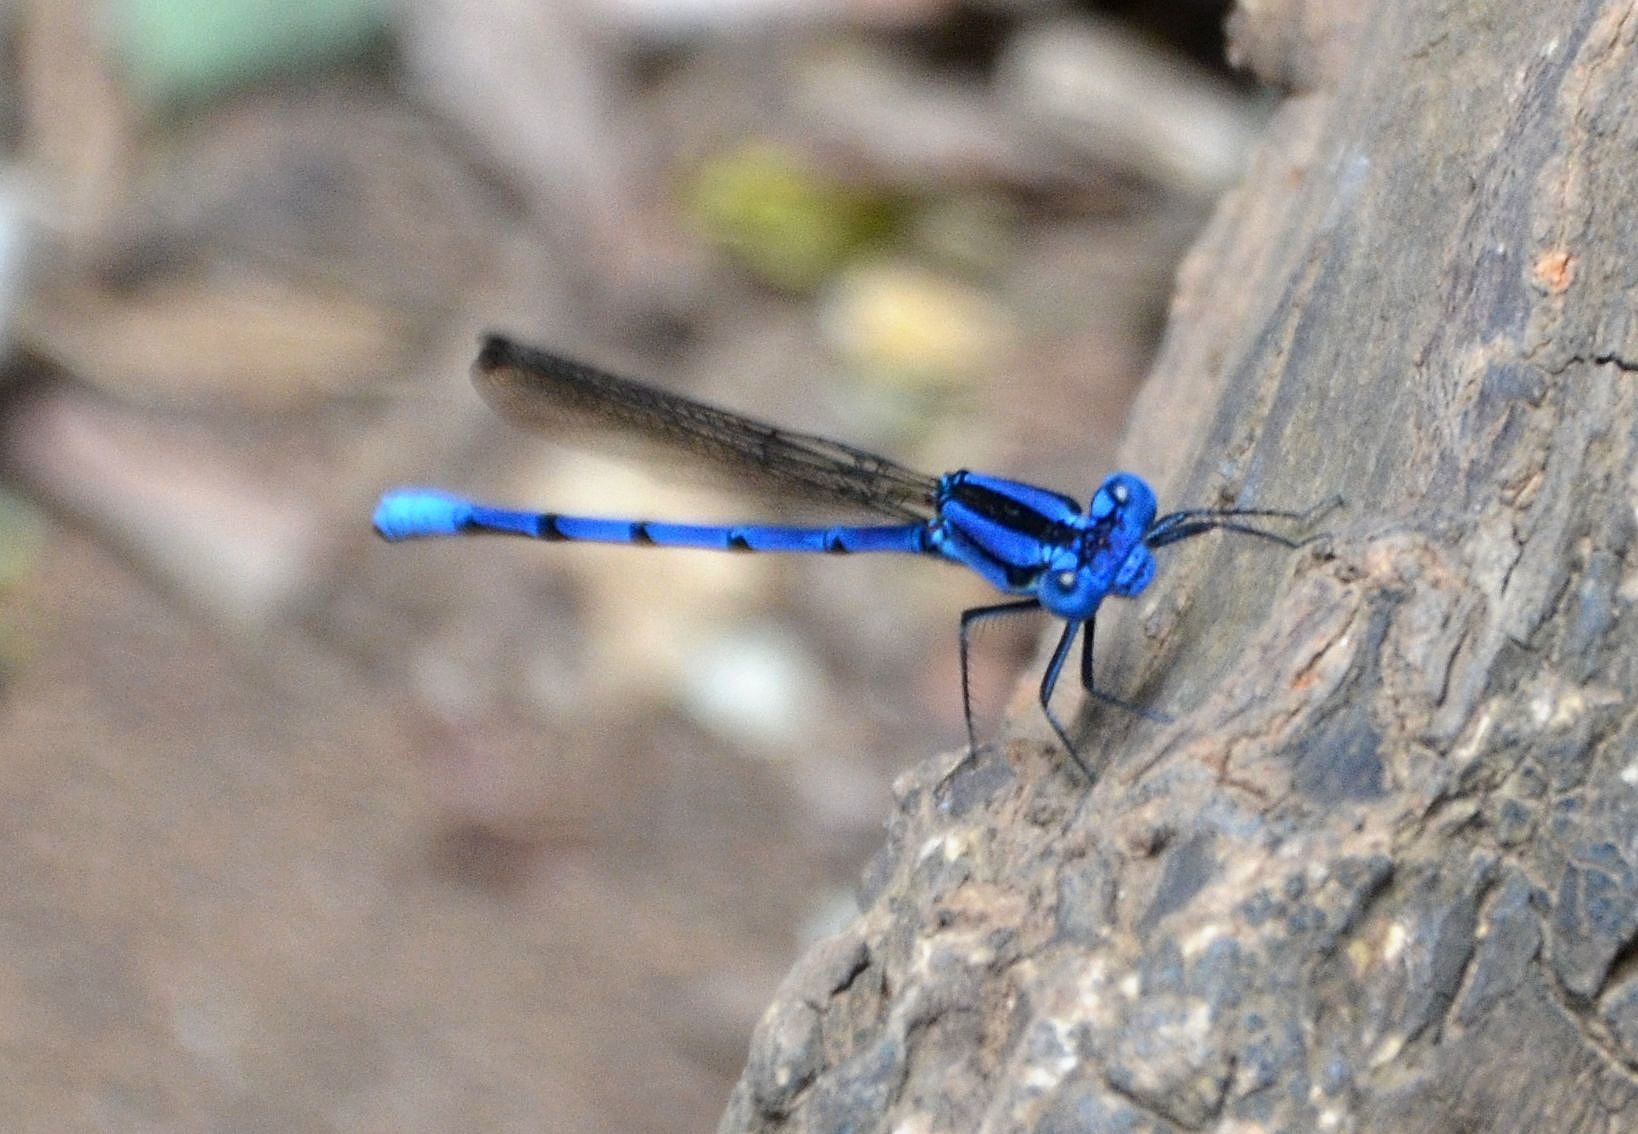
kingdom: Animalia
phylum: Arthropoda
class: Insecta
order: Odonata
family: Coenagrionidae
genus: Argia
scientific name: Argia anceps
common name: Cerulean dancer
